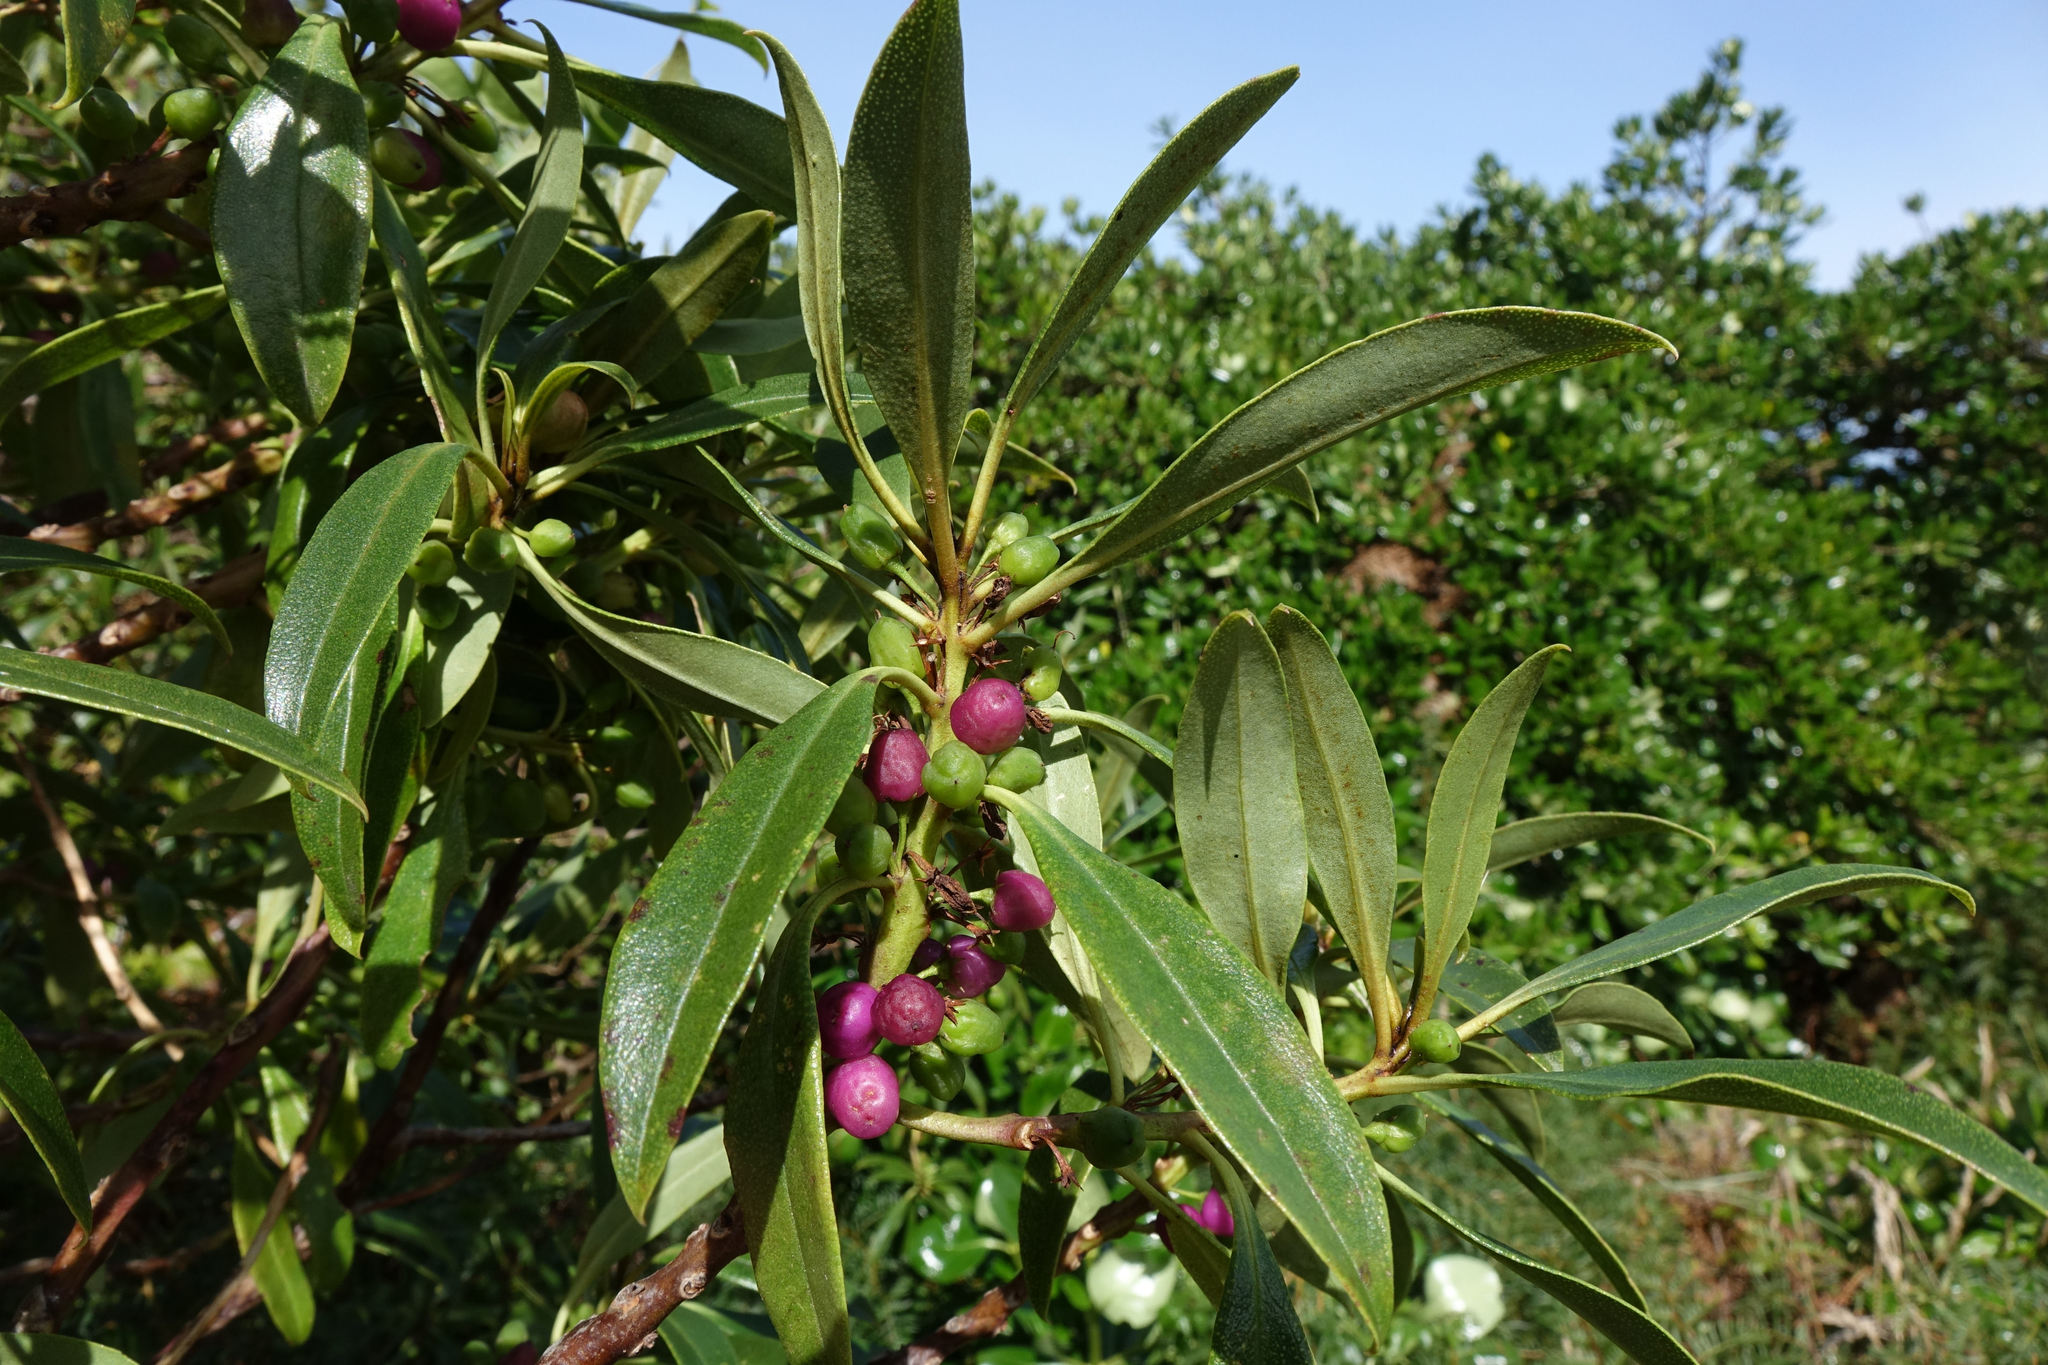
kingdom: Plantae
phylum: Tracheophyta
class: Magnoliopsida
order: Lamiales
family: Scrophulariaceae
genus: Myoporum
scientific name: Myoporum laetum
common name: Ngaio tree
